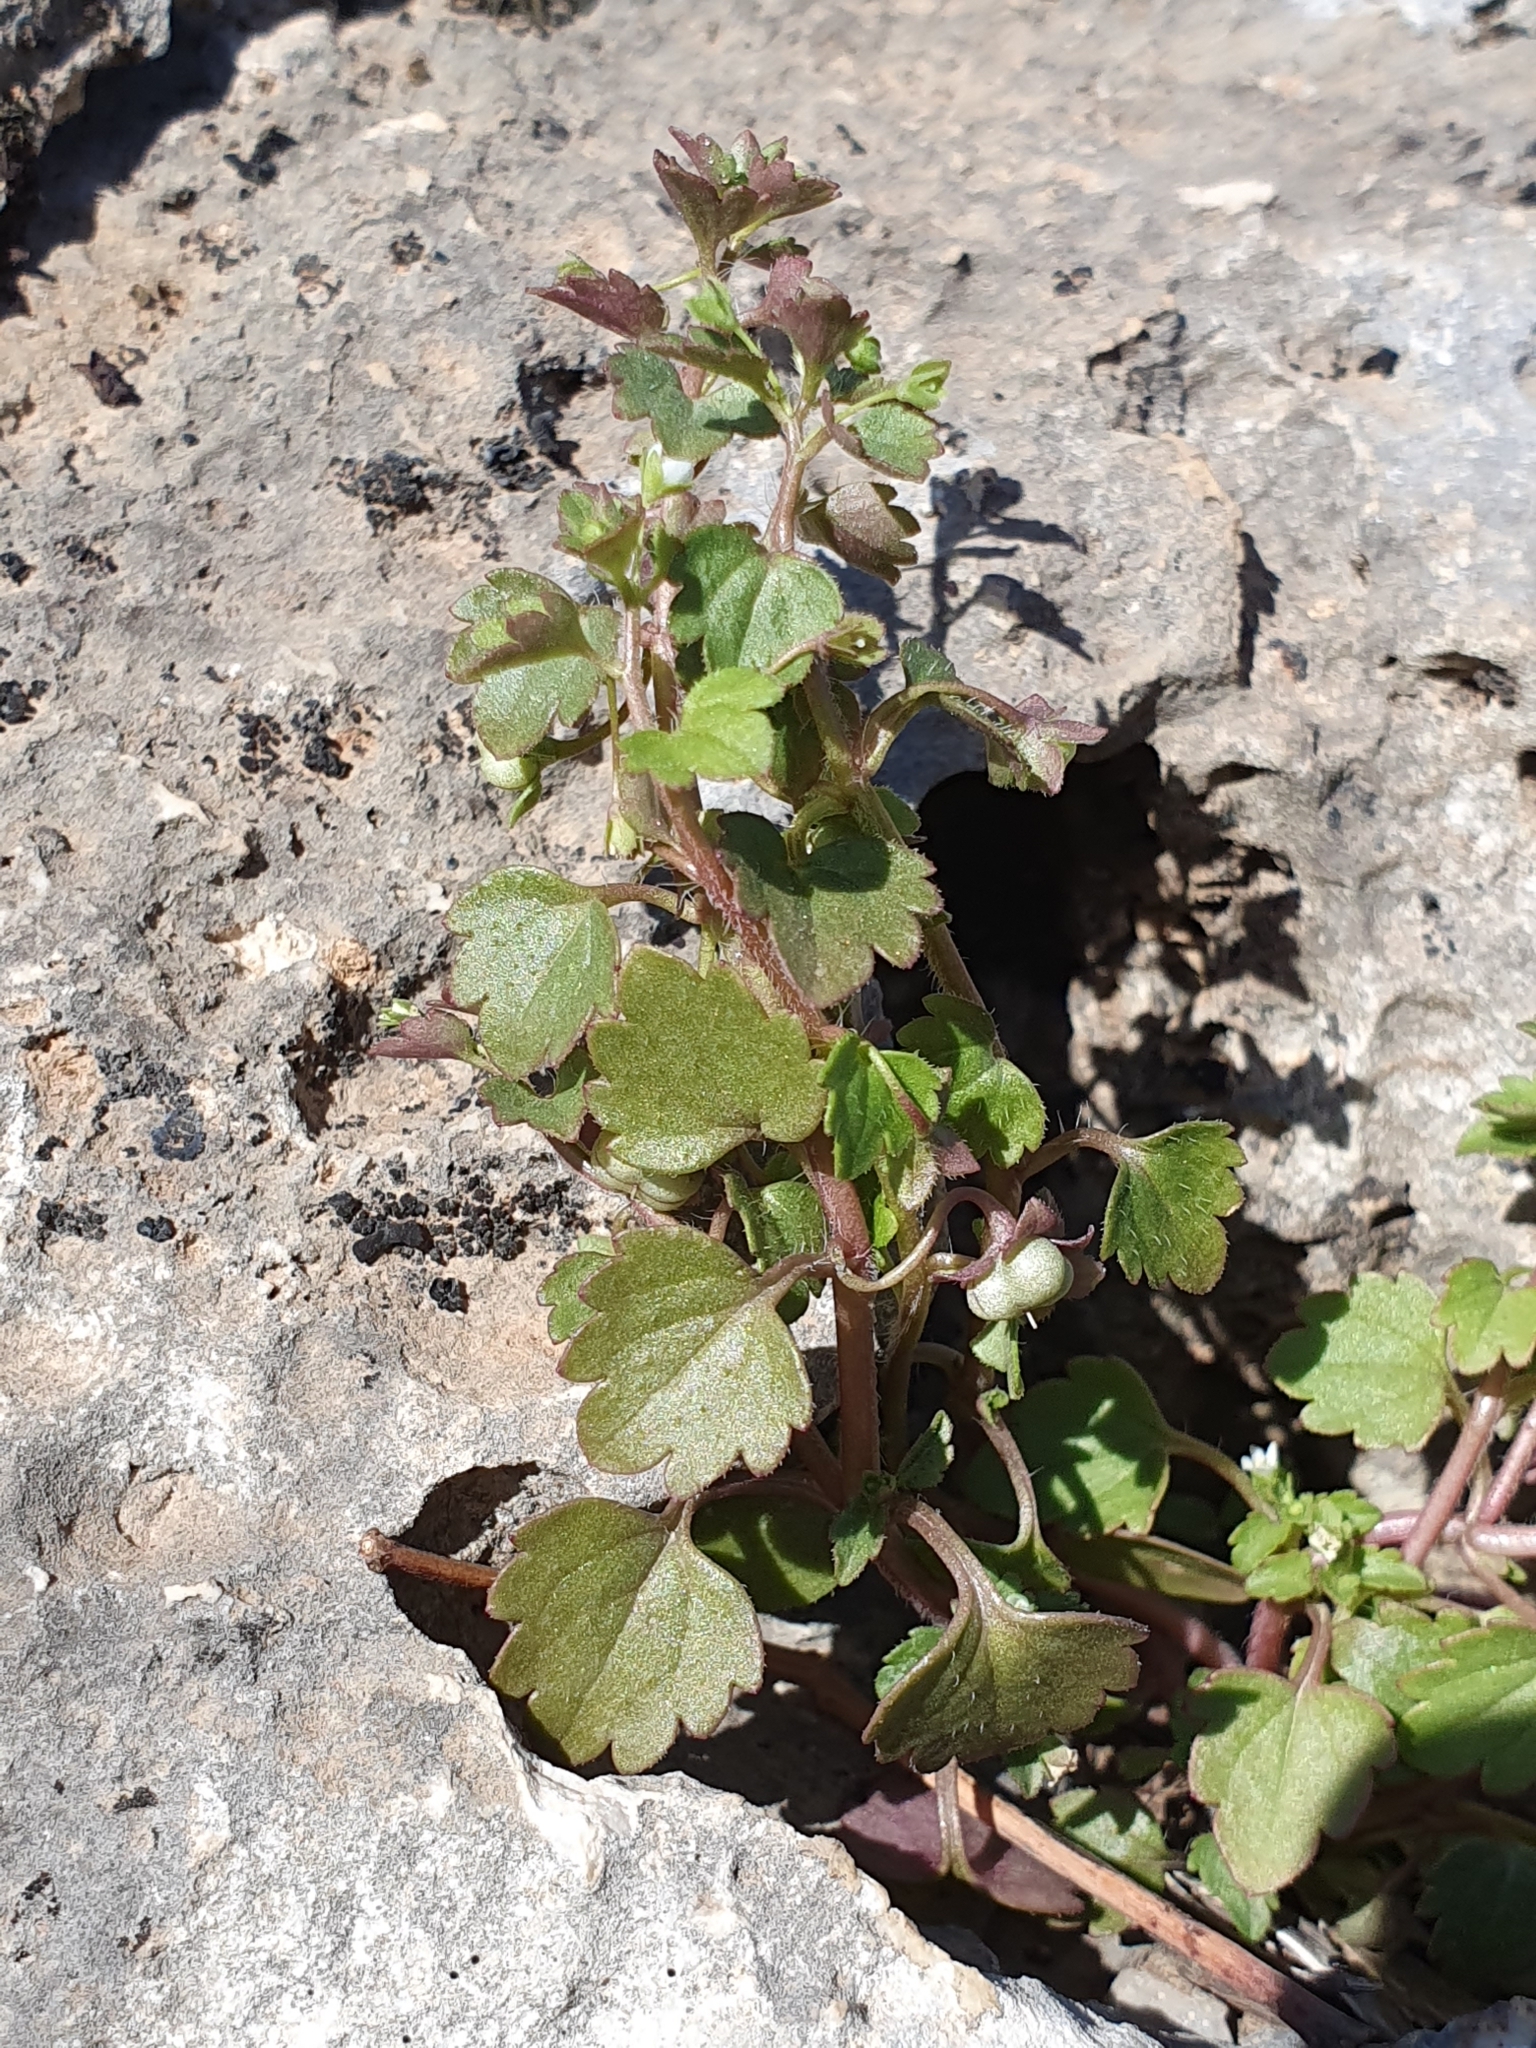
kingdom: Plantae
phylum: Tracheophyta
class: Magnoliopsida
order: Lamiales
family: Plantaginaceae
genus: Veronica
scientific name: Veronica cymbalaria
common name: Pale speedwell
